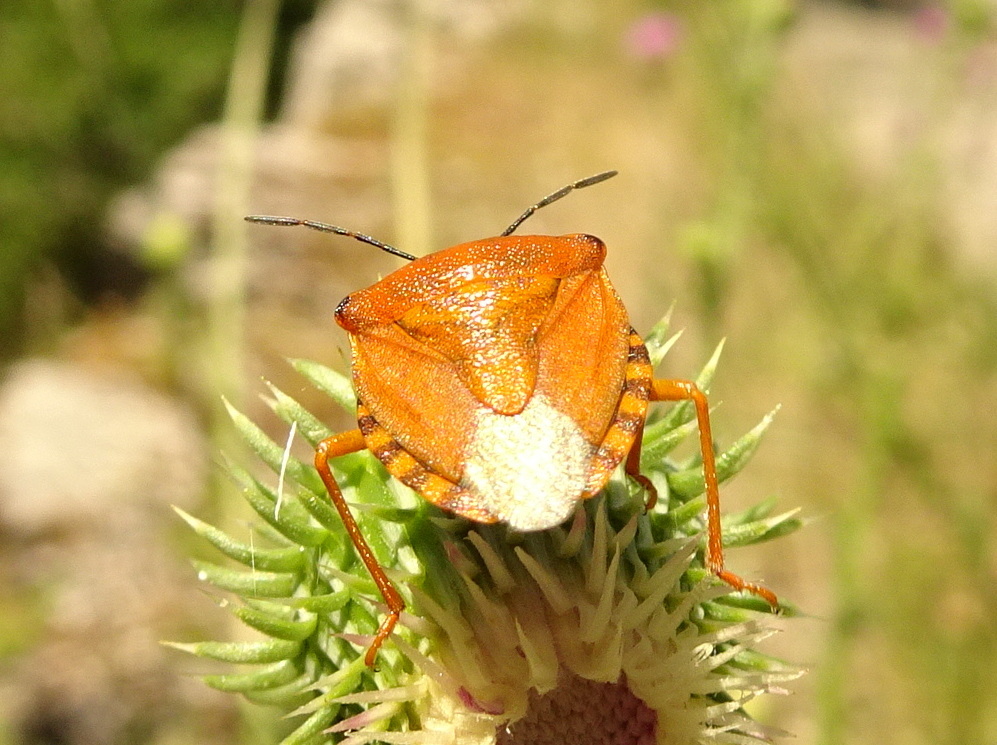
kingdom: Animalia
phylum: Arthropoda
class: Insecta
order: Hemiptera
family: Pentatomidae
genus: Carpocoris
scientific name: Carpocoris purpureipennis
